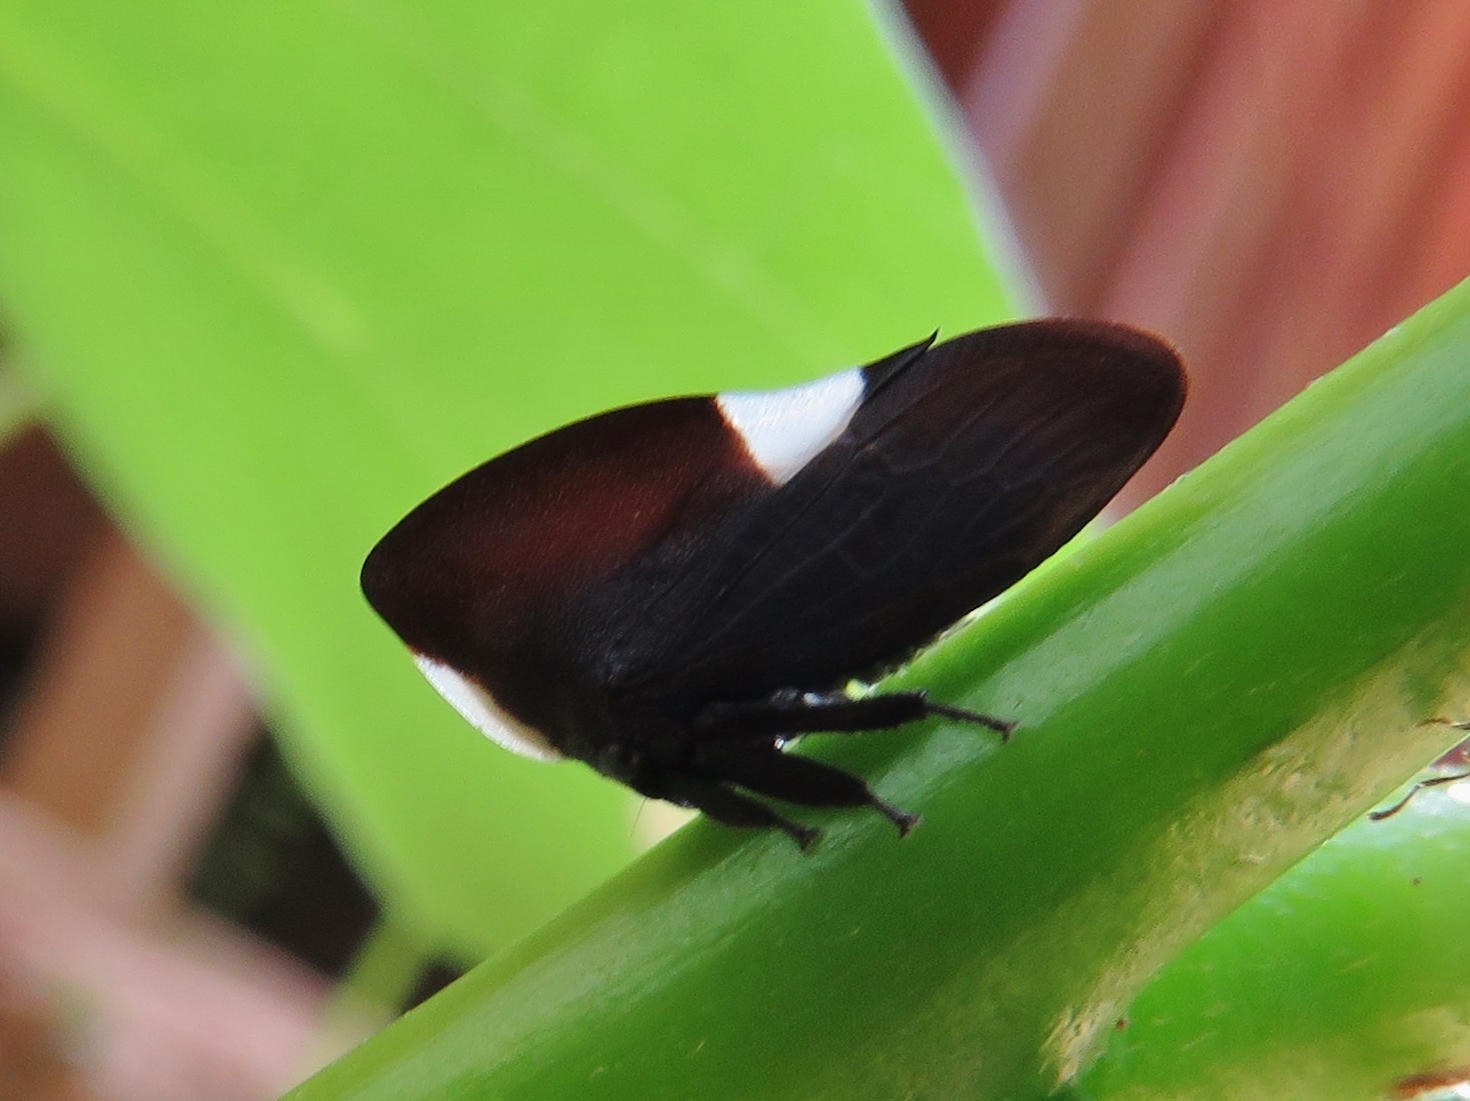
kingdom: Animalia
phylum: Arthropoda
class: Insecta
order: Hemiptera
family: Membracidae
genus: Membracis
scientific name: Membracis dorsata
